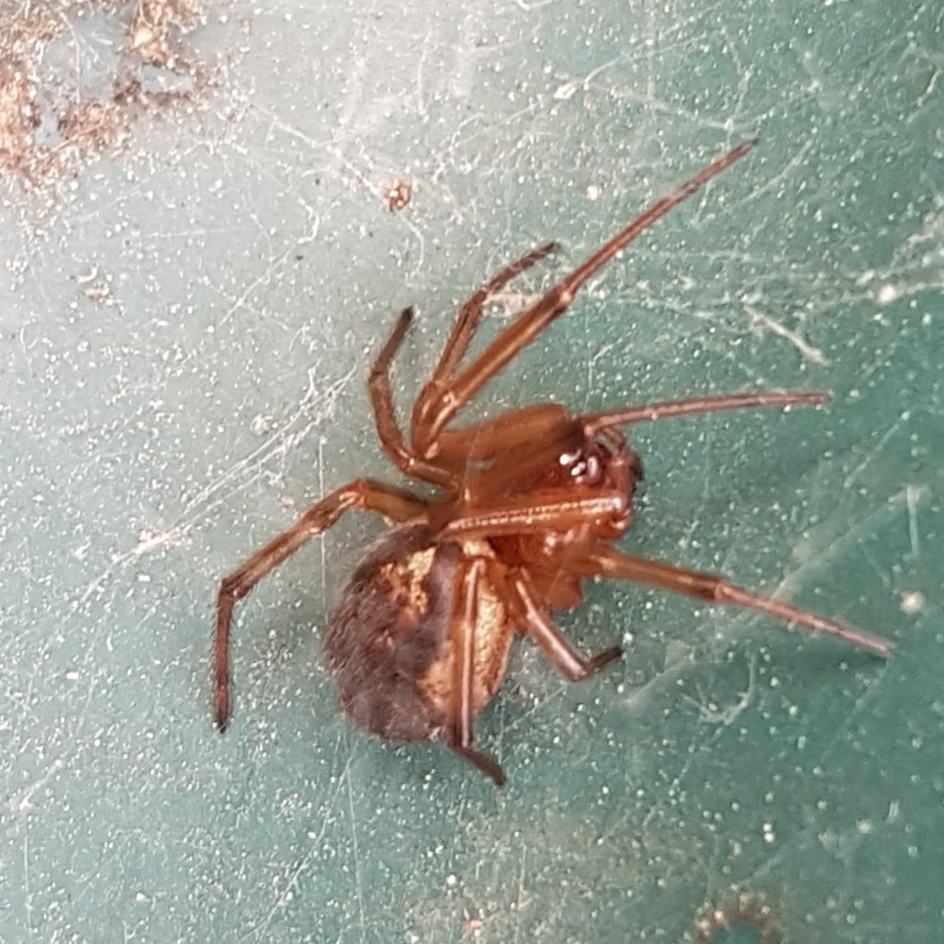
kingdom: Animalia
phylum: Arthropoda
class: Arachnida
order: Araneae
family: Theridiidae
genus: Steatoda
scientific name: Steatoda nobilis
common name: Cobweb weaver
